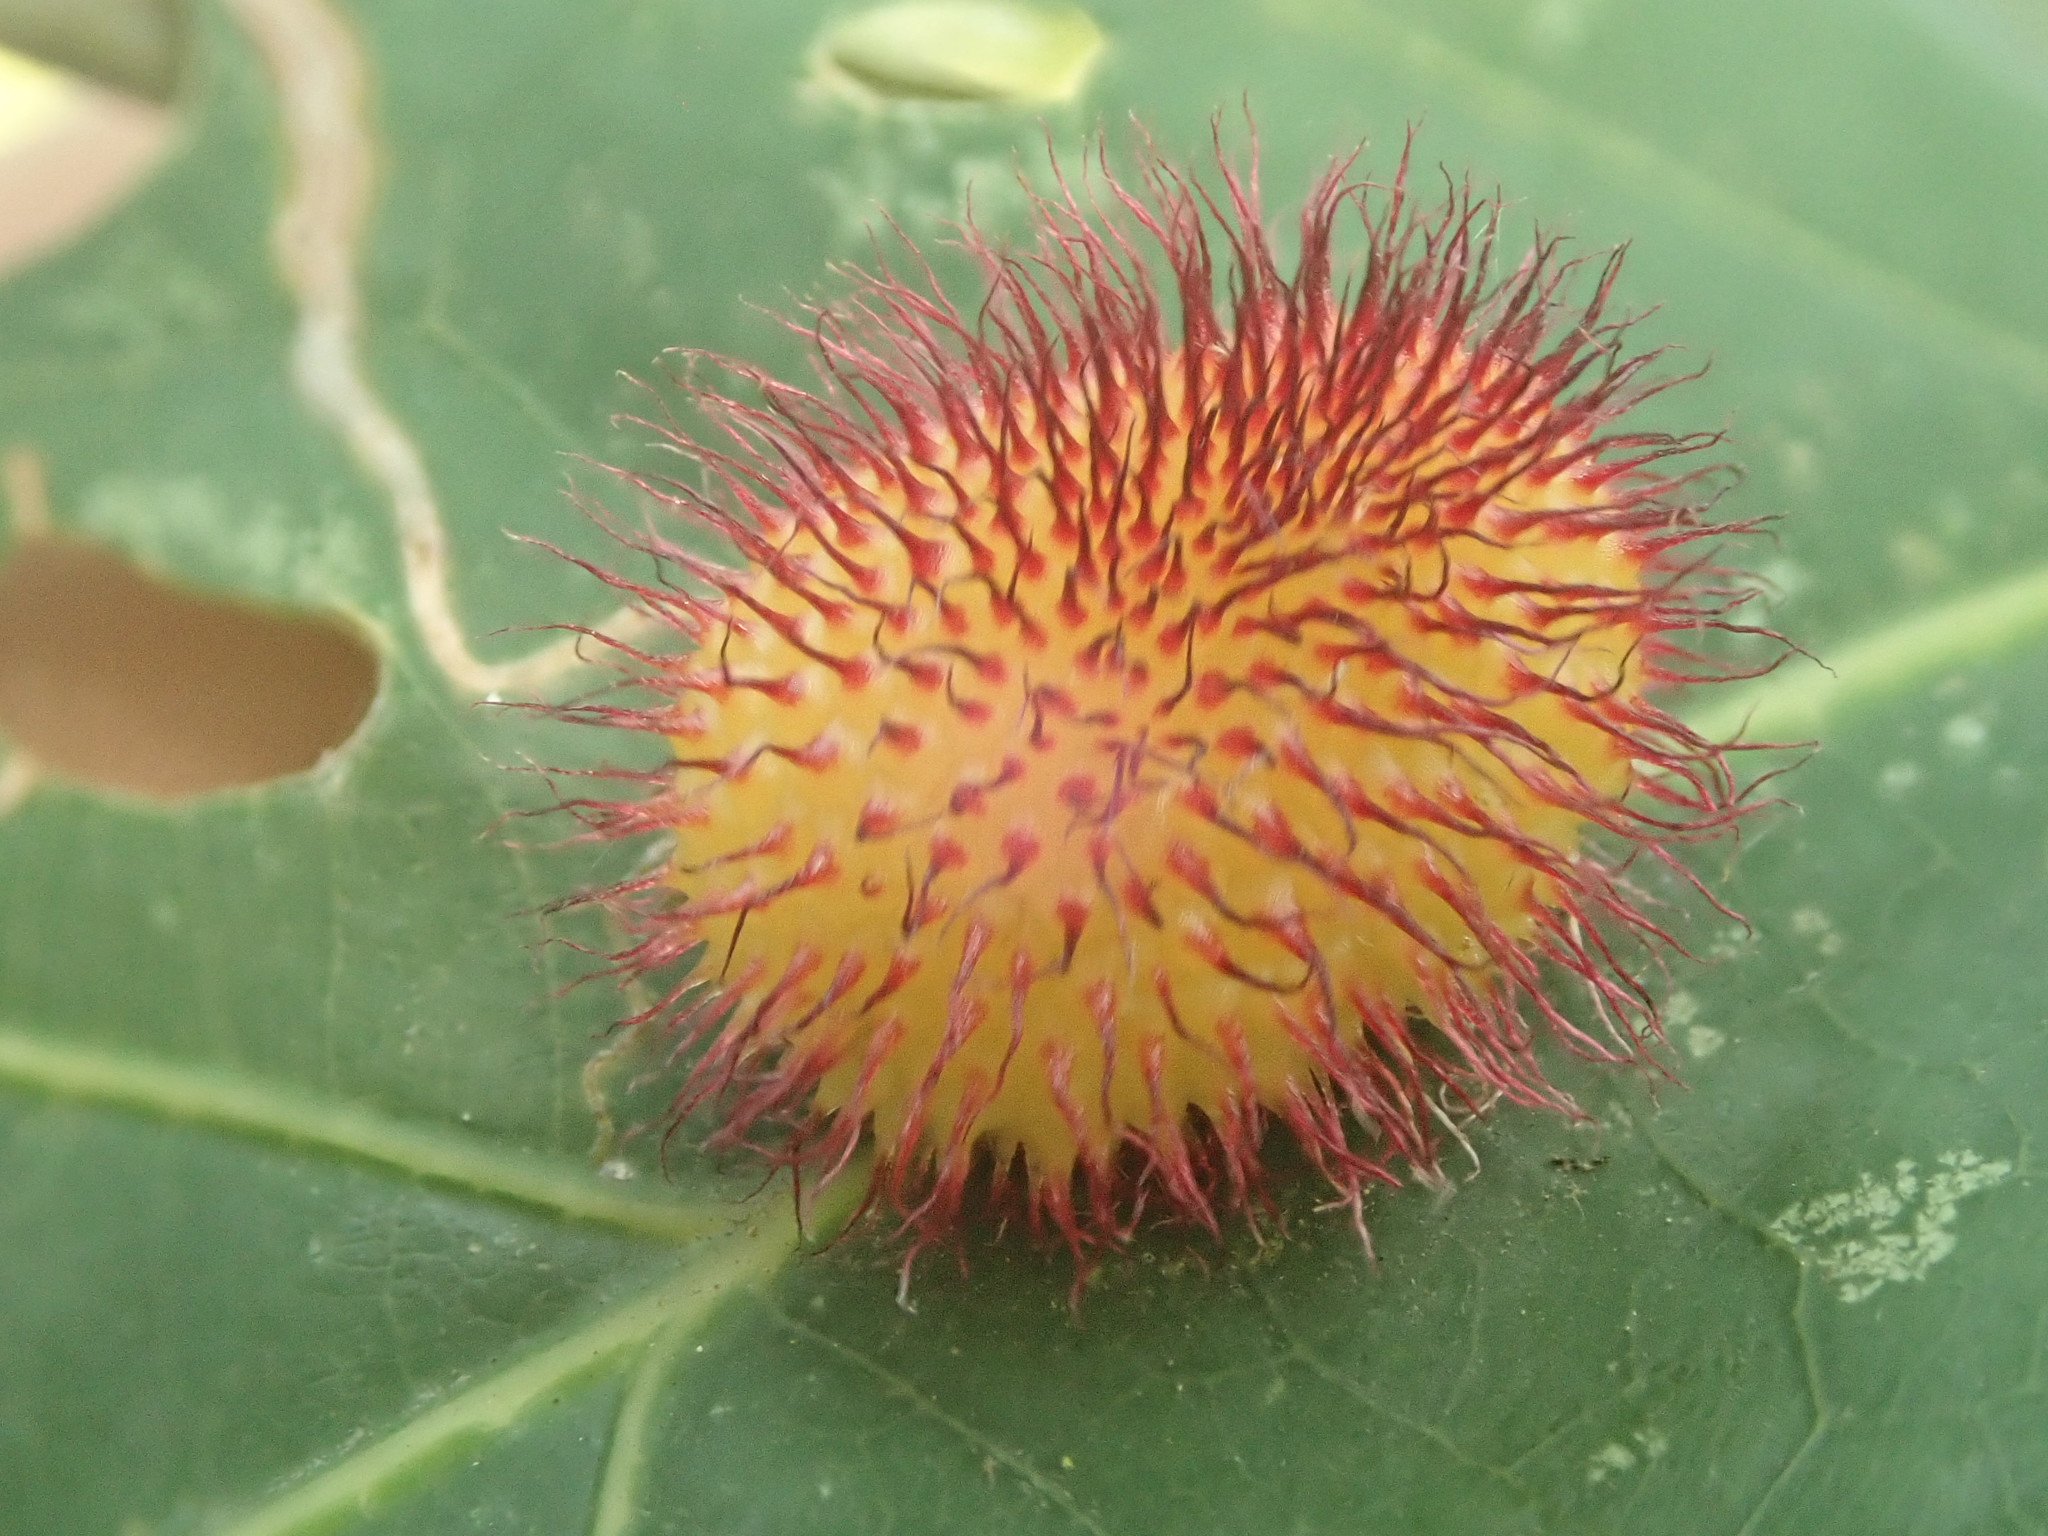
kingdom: Animalia
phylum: Arthropoda
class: Insecta
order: Hymenoptera
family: Cynipidae
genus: Acraspis
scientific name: Acraspis erinacei
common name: Hedgehog gall wasp
